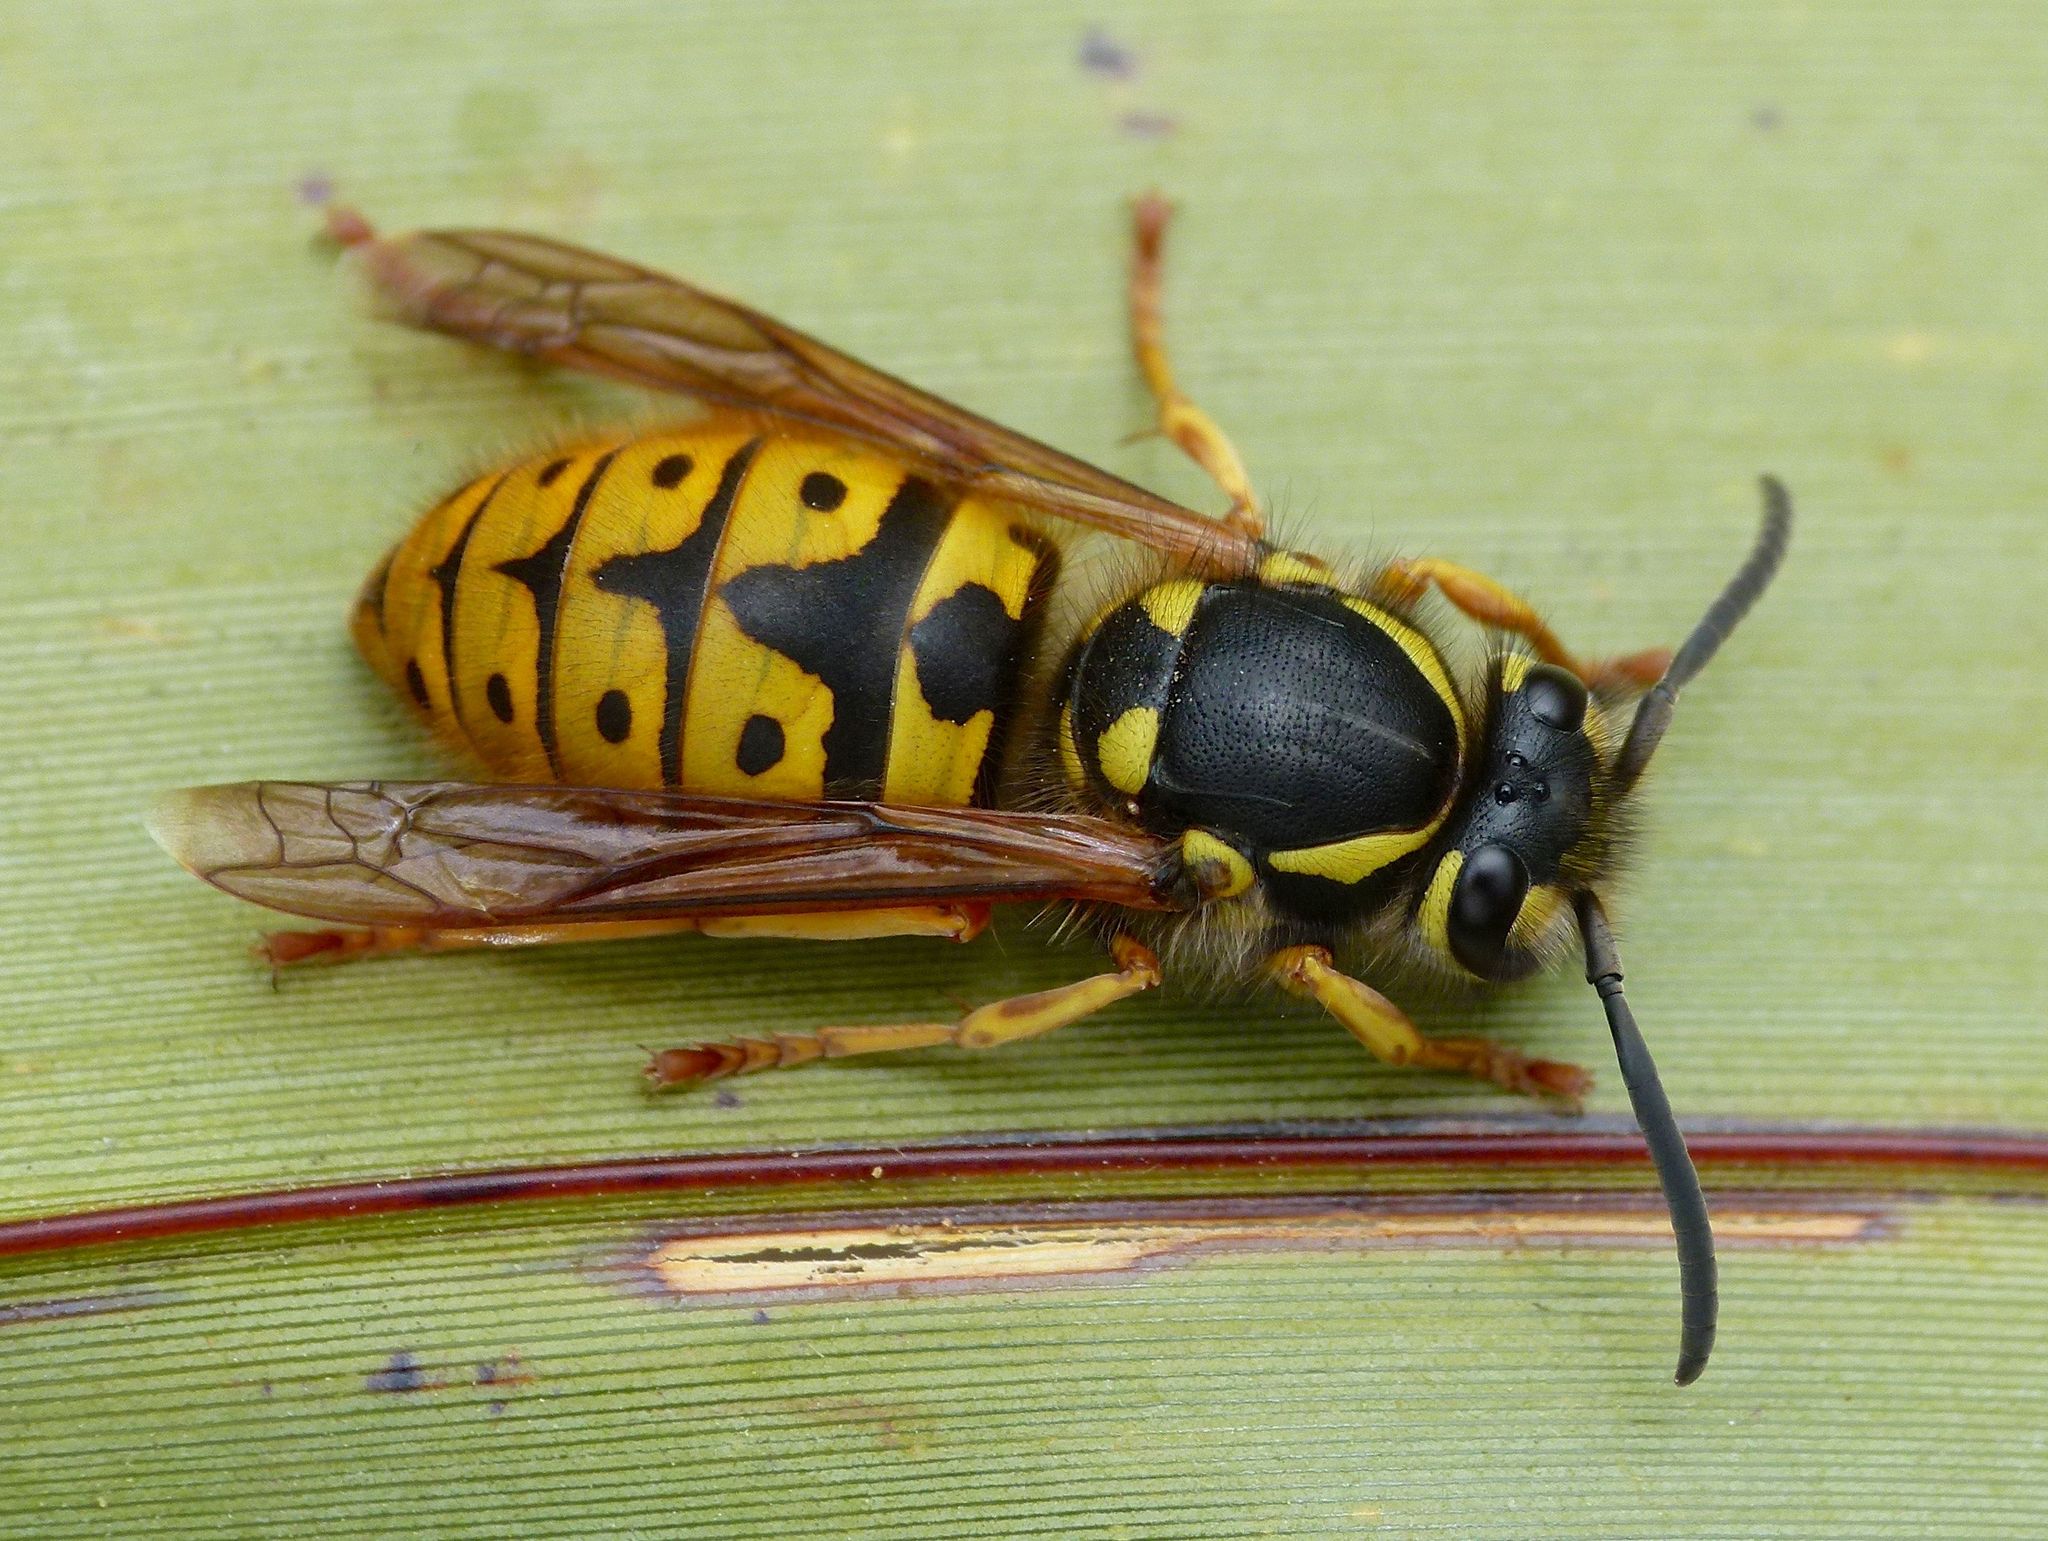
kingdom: Animalia
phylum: Arthropoda
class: Insecta
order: Hymenoptera
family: Vespidae
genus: Vespula
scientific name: Vespula germanica
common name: German wasp
